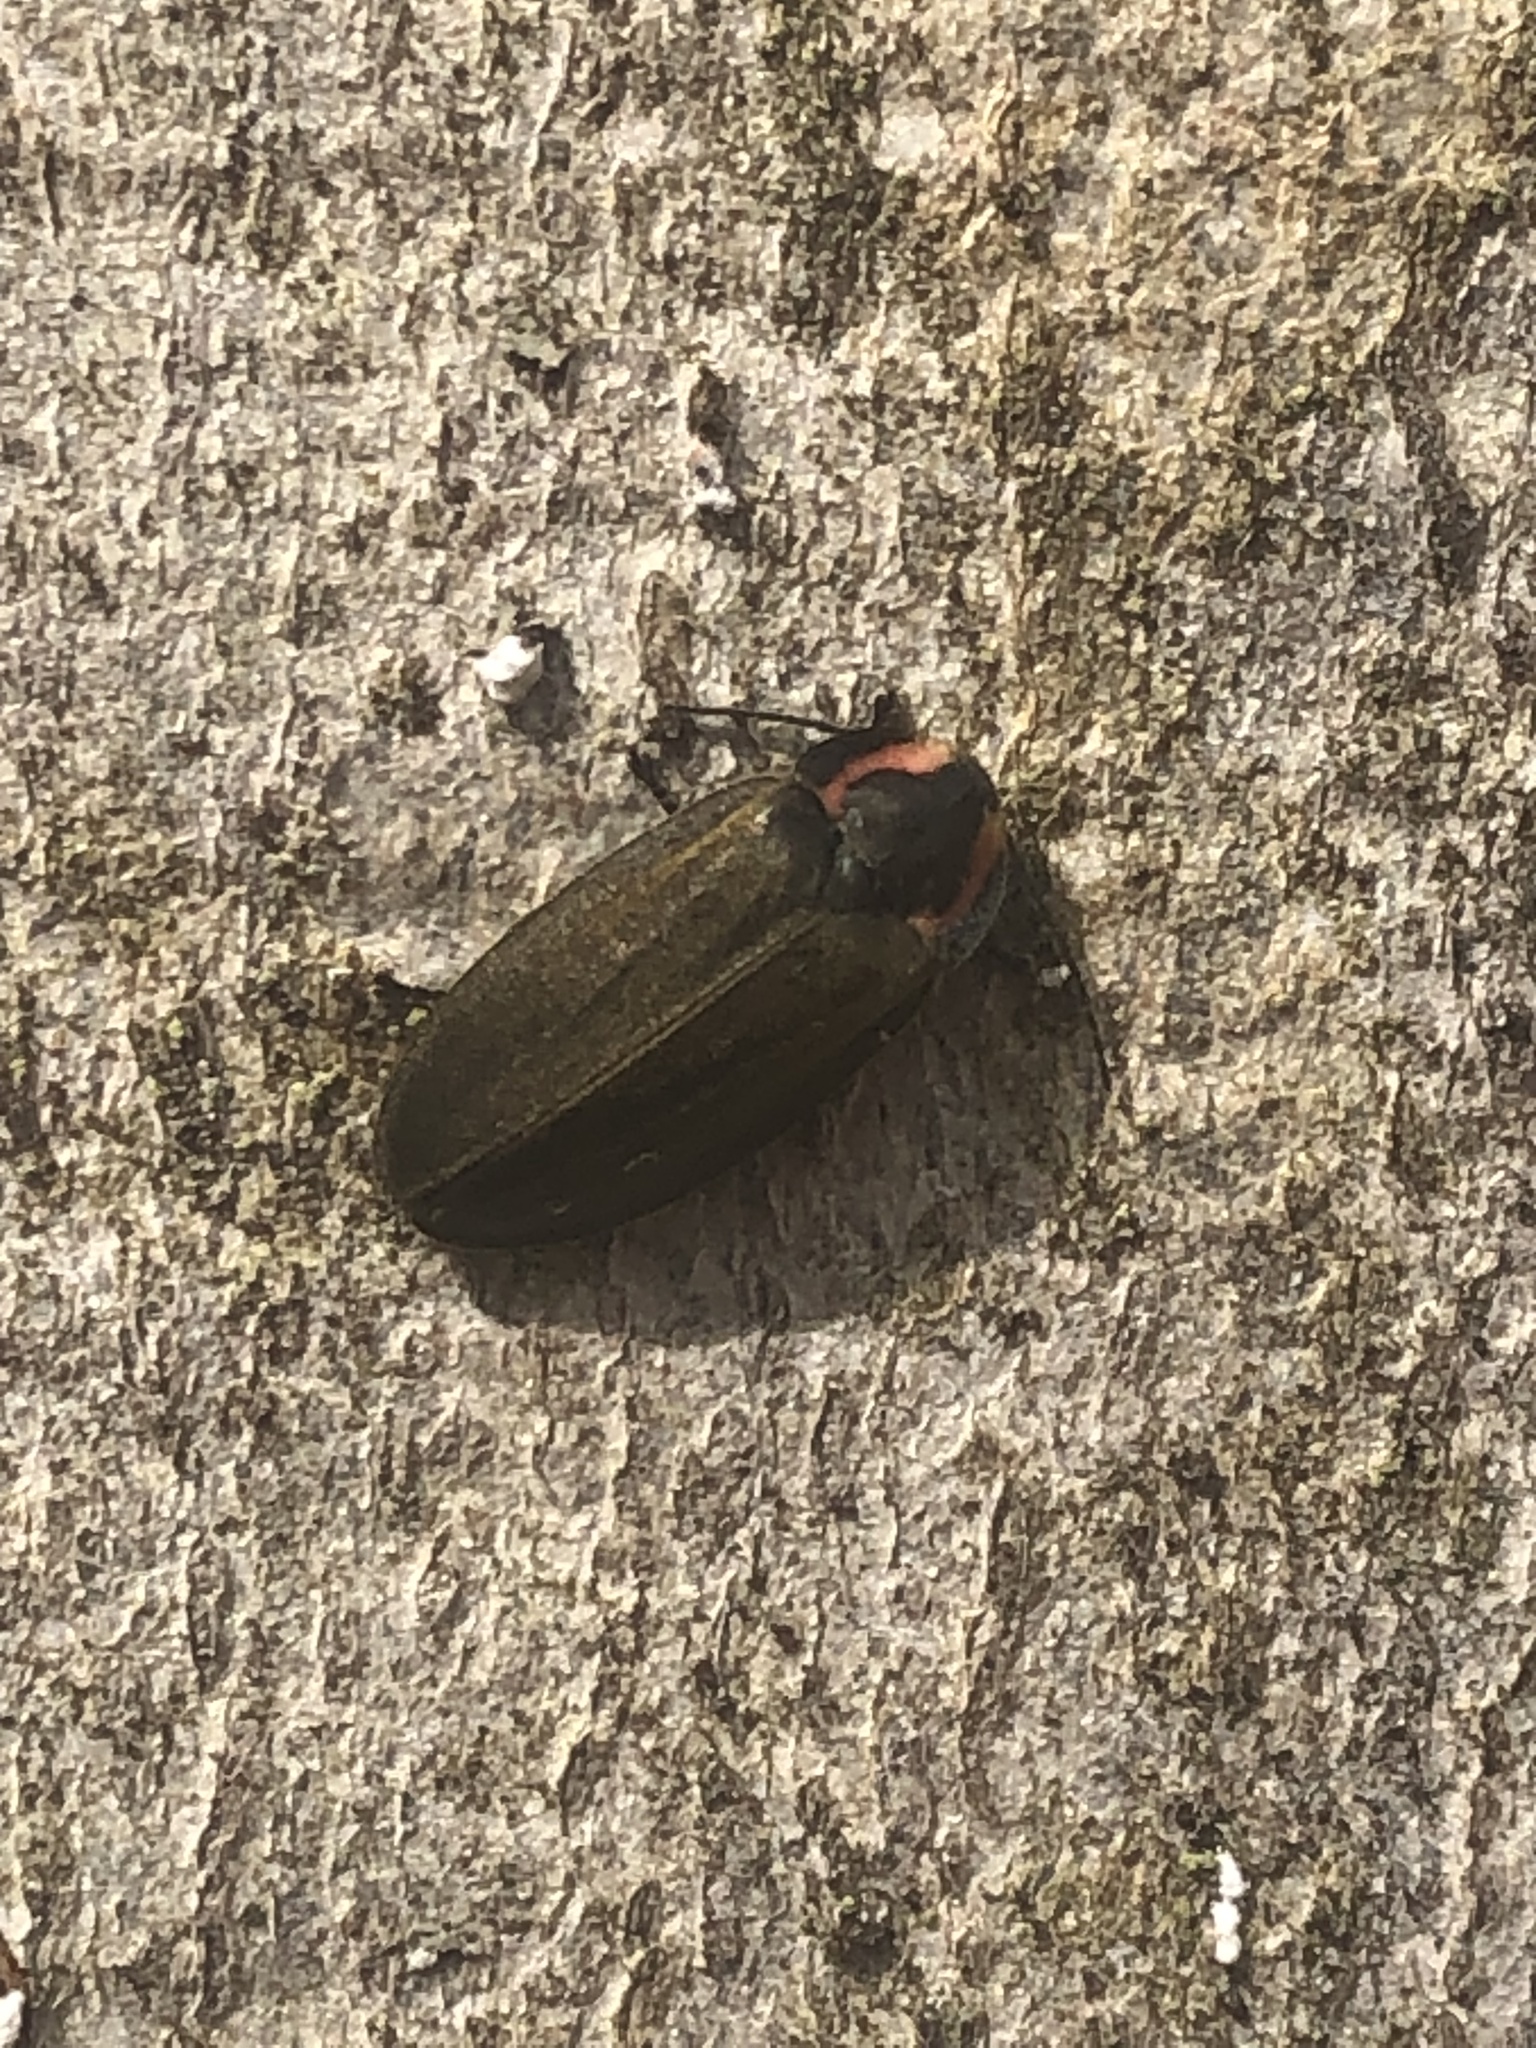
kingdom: Animalia
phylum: Arthropoda
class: Insecta
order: Coleoptera
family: Lampyridae
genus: Photinus
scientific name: Photinus corrusca
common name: Winter firefly
